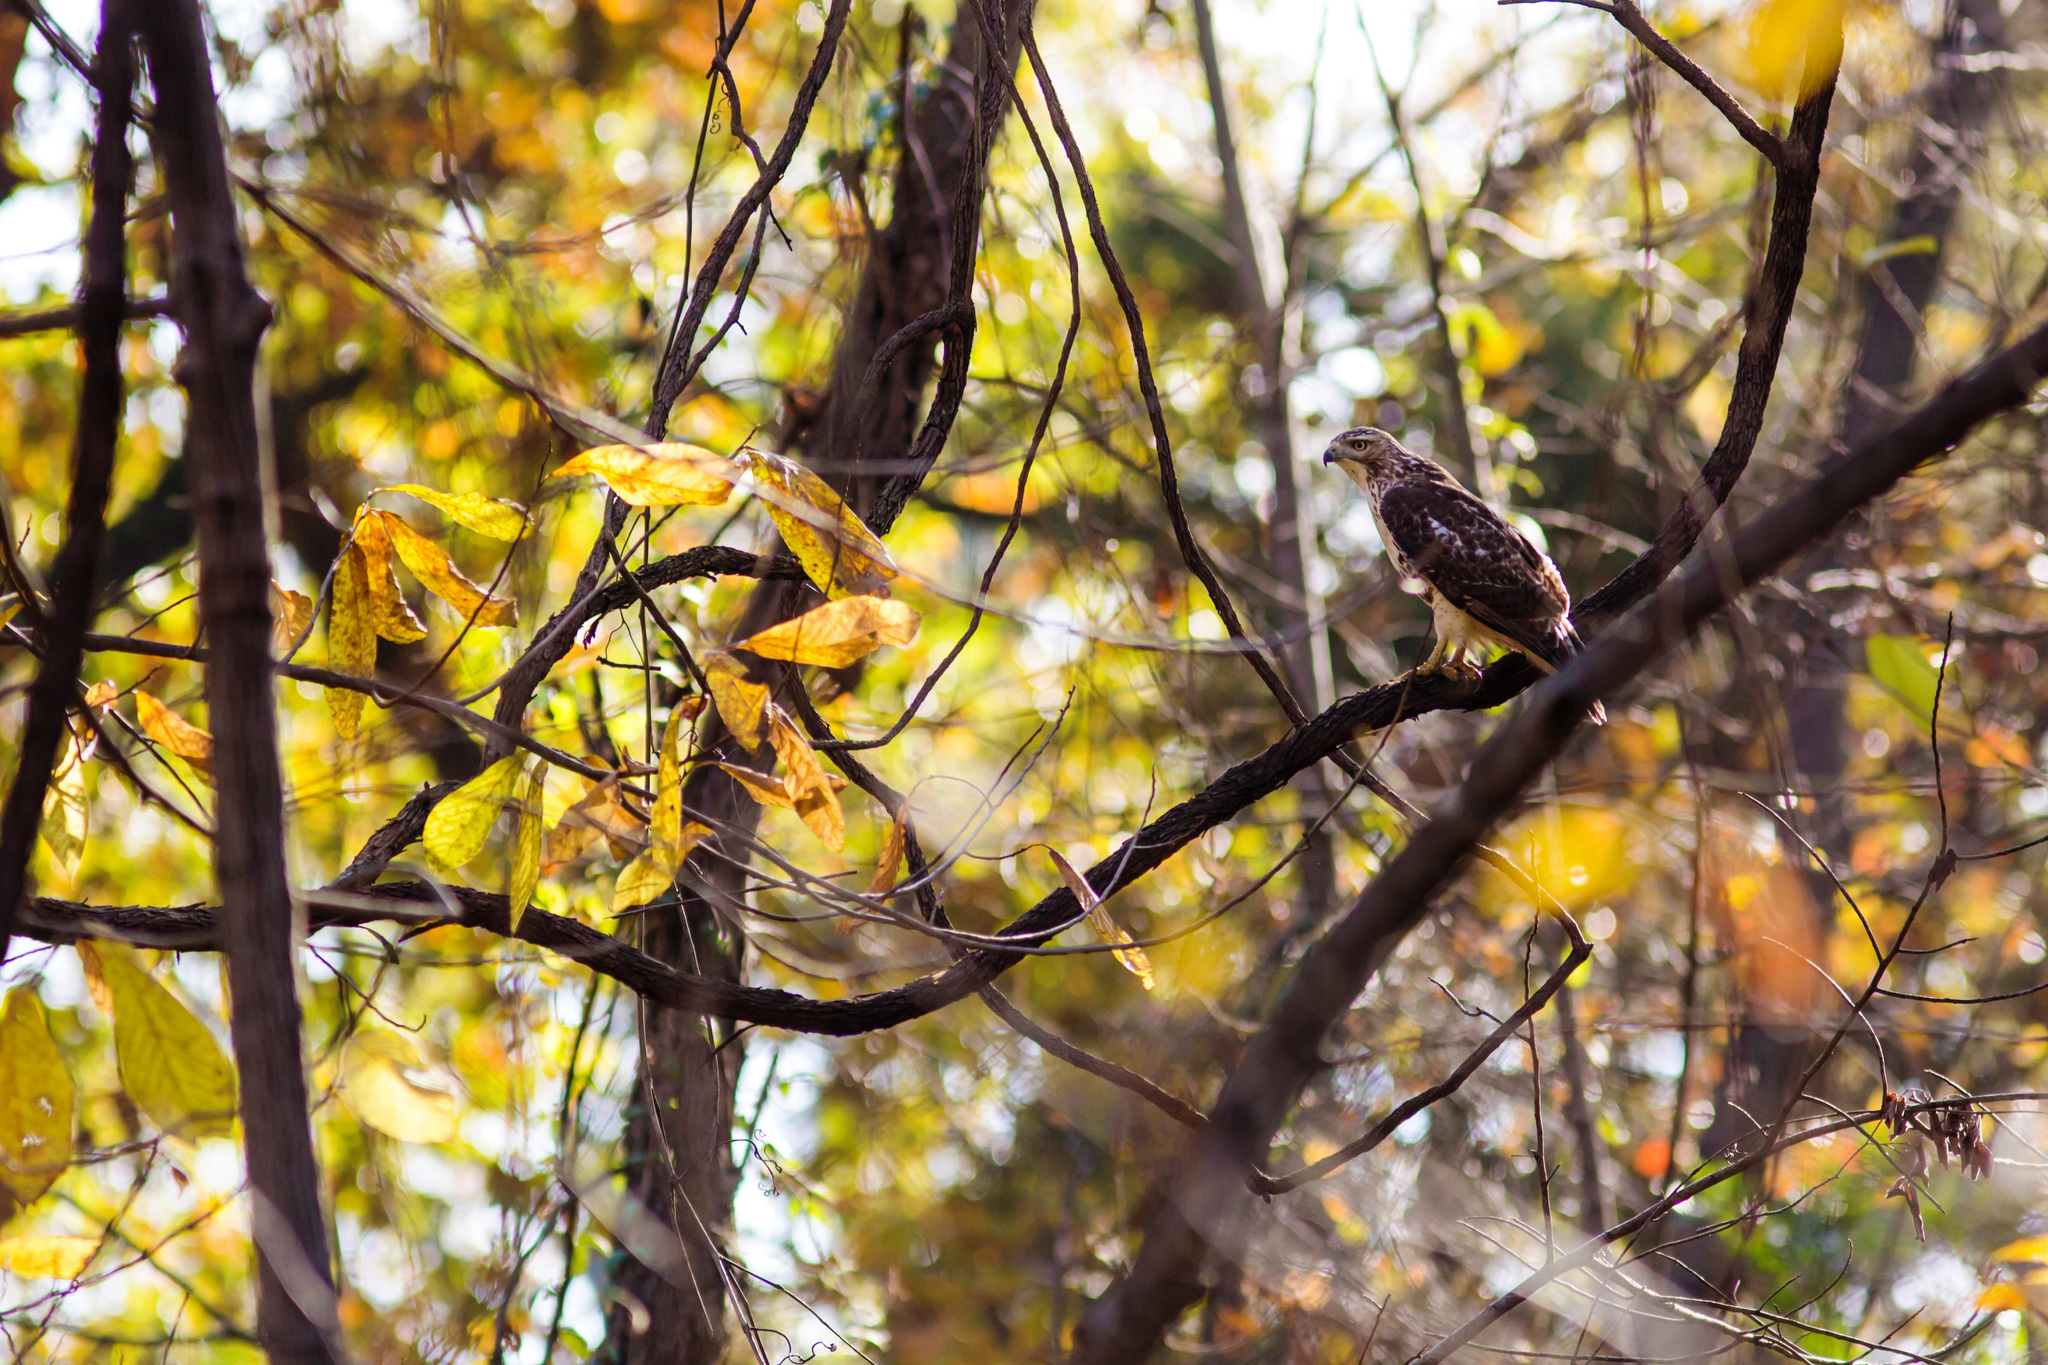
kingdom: Animalia
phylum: Chordata
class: Aves
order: Accipitriformes
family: Accipitridae
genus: Buteo
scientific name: Buteo jamaicensis
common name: Red-tailed hawk
